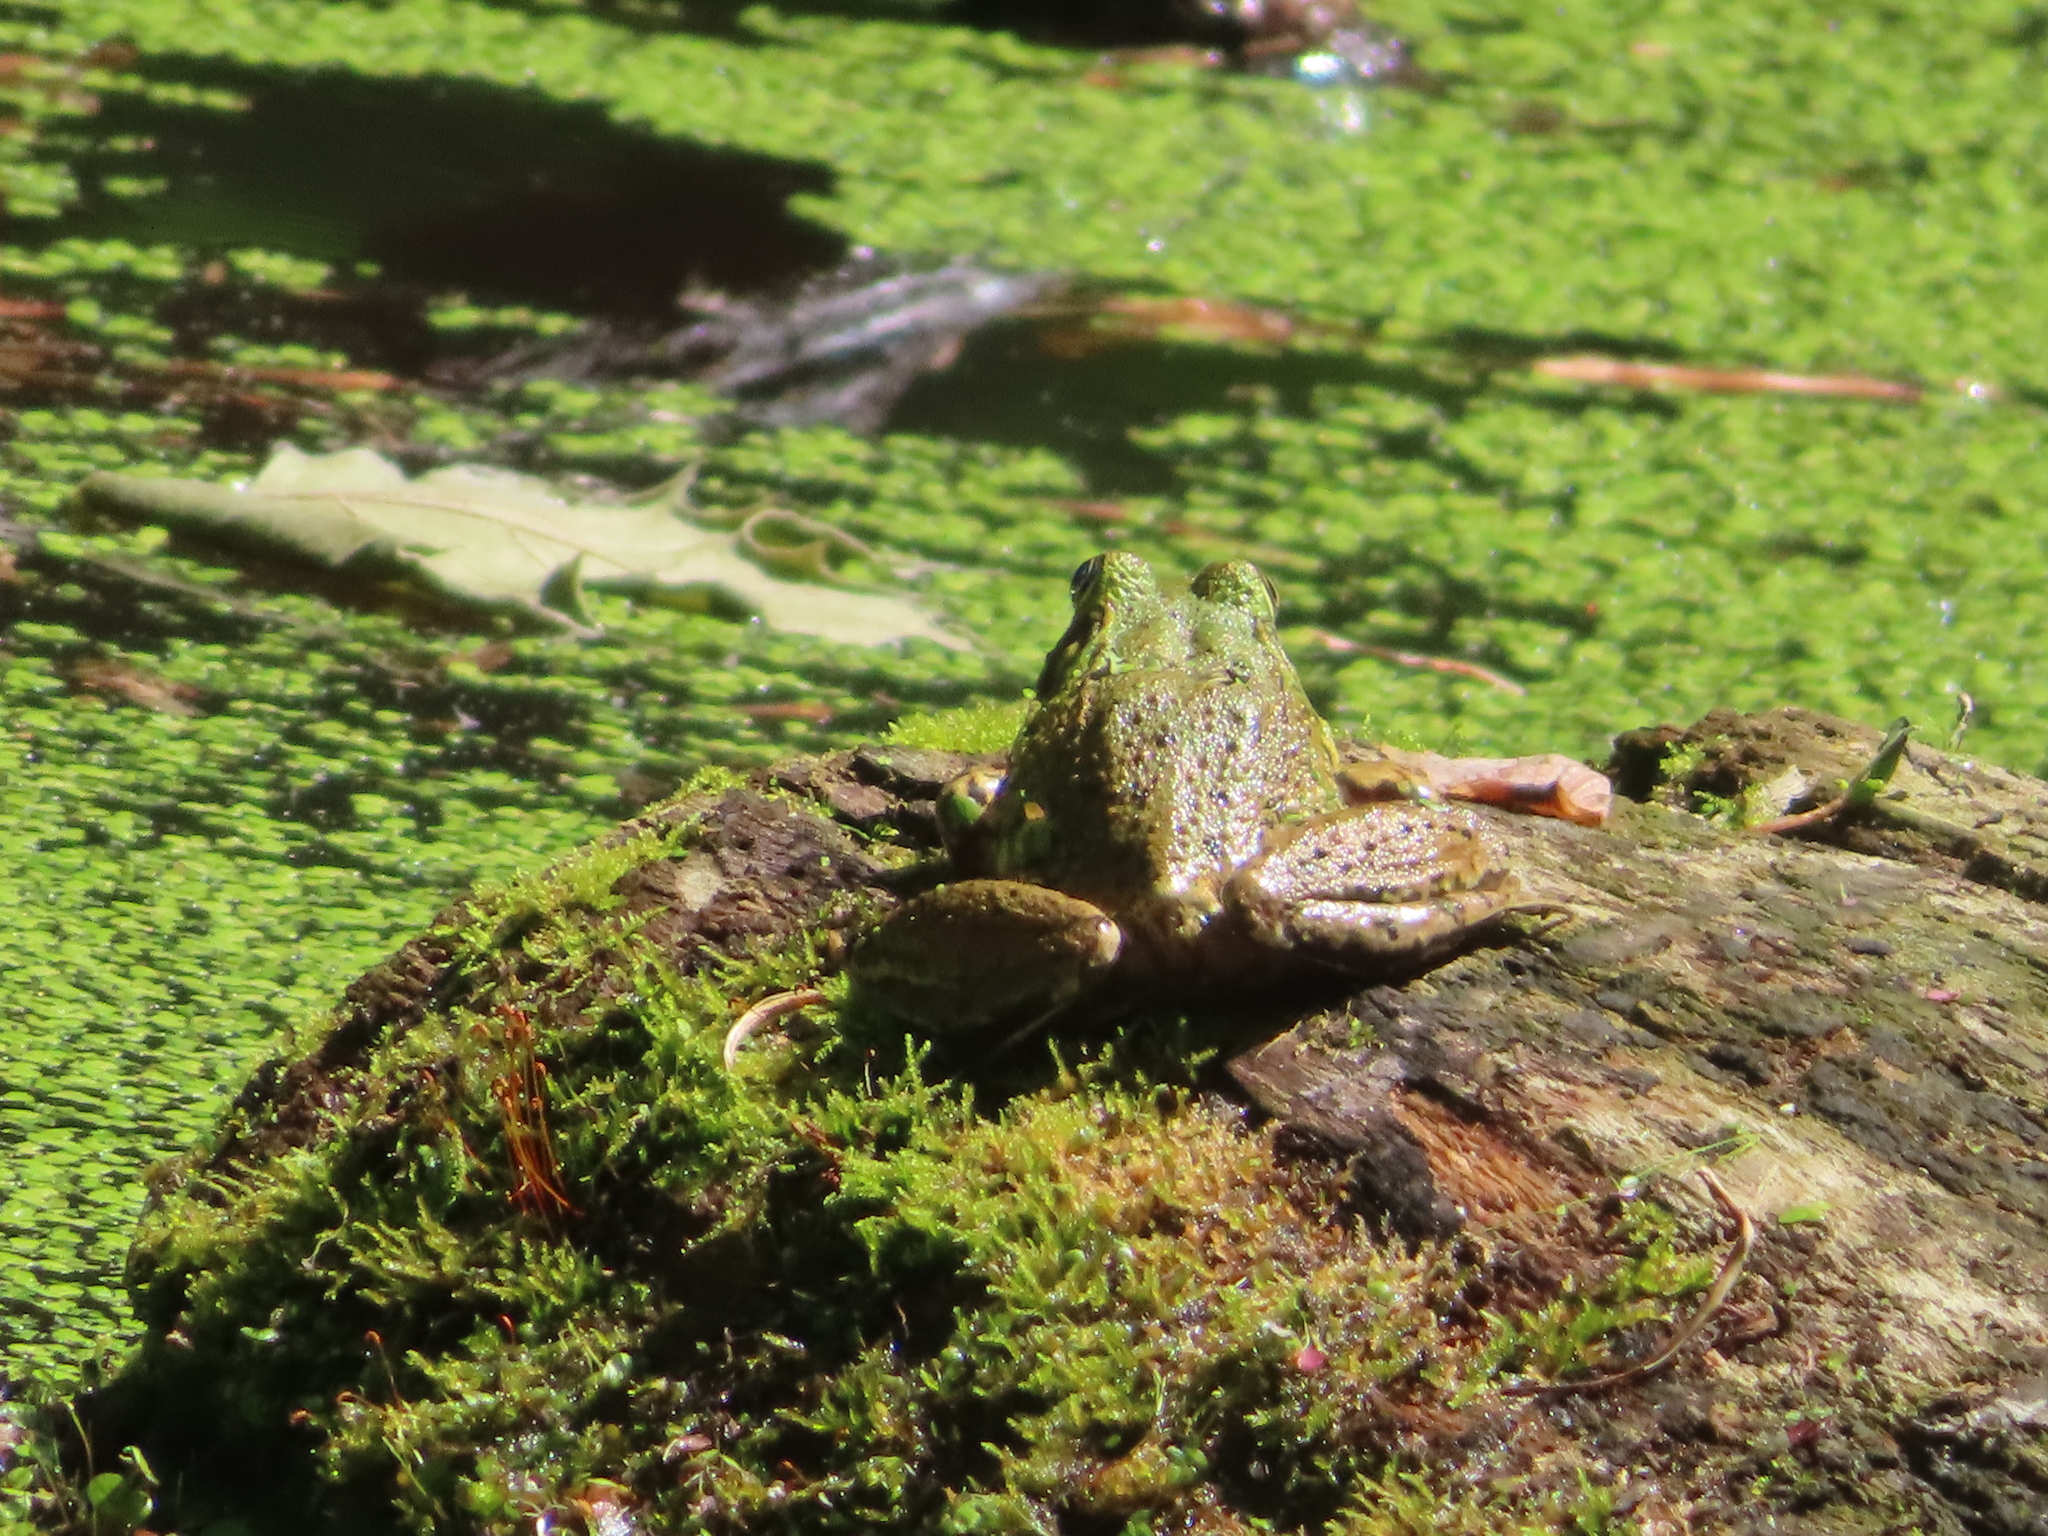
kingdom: Animalia
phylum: Chordata
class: Amphibia
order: Anura
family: Ranidae
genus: Lithobates
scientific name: Lithobates clamitans
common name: Green frog
